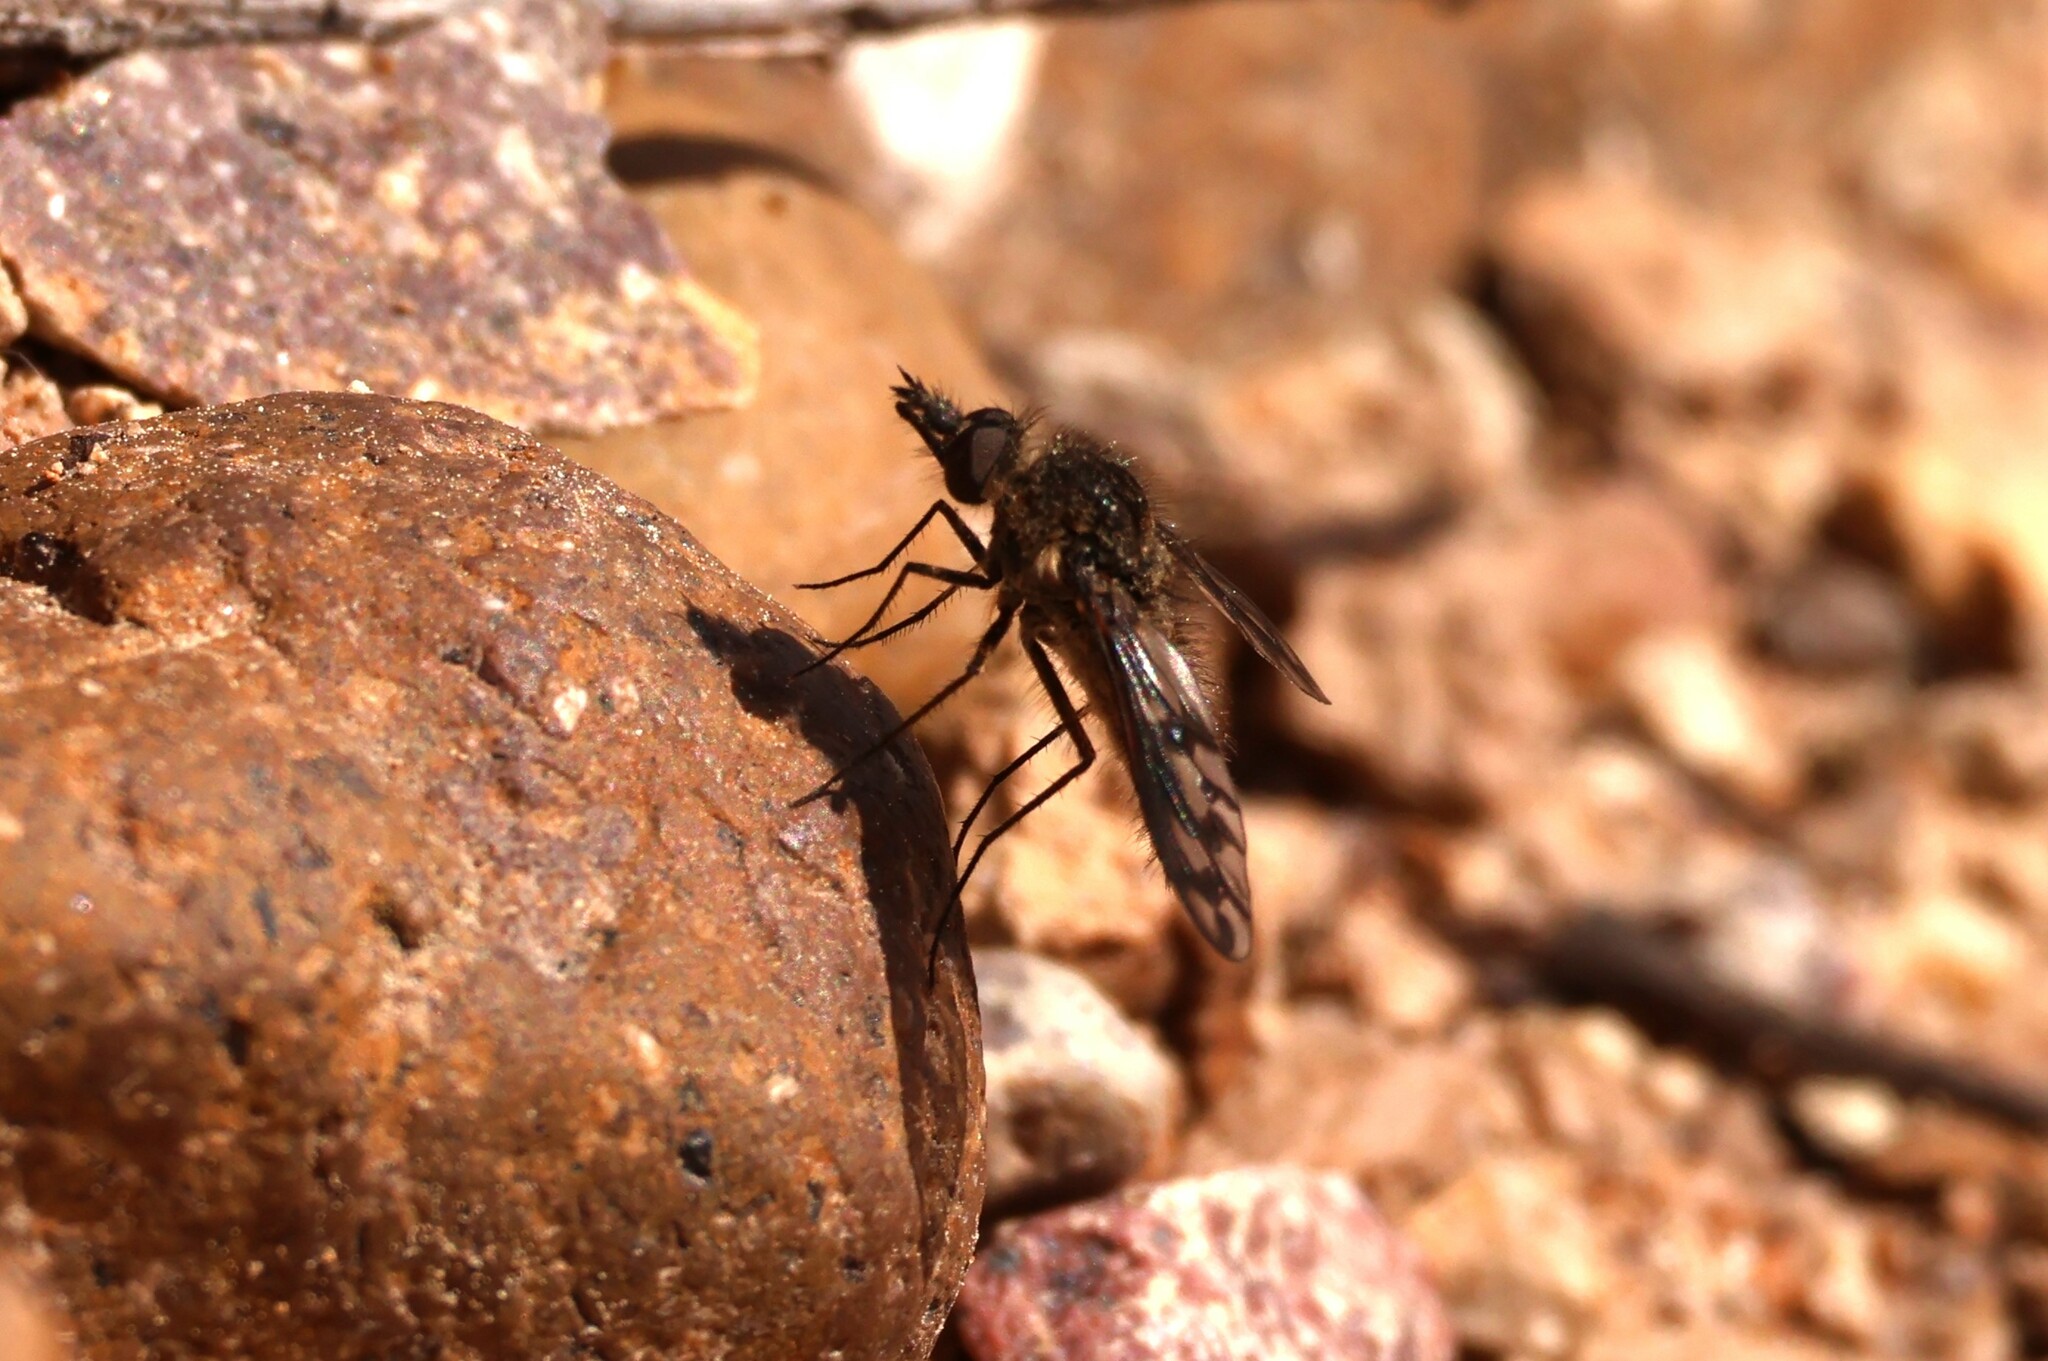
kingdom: Animalia
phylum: Arthropoda
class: Insecta
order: Diptera
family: Bombyliidae
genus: Conophorus
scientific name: Conophorus fenestratus
